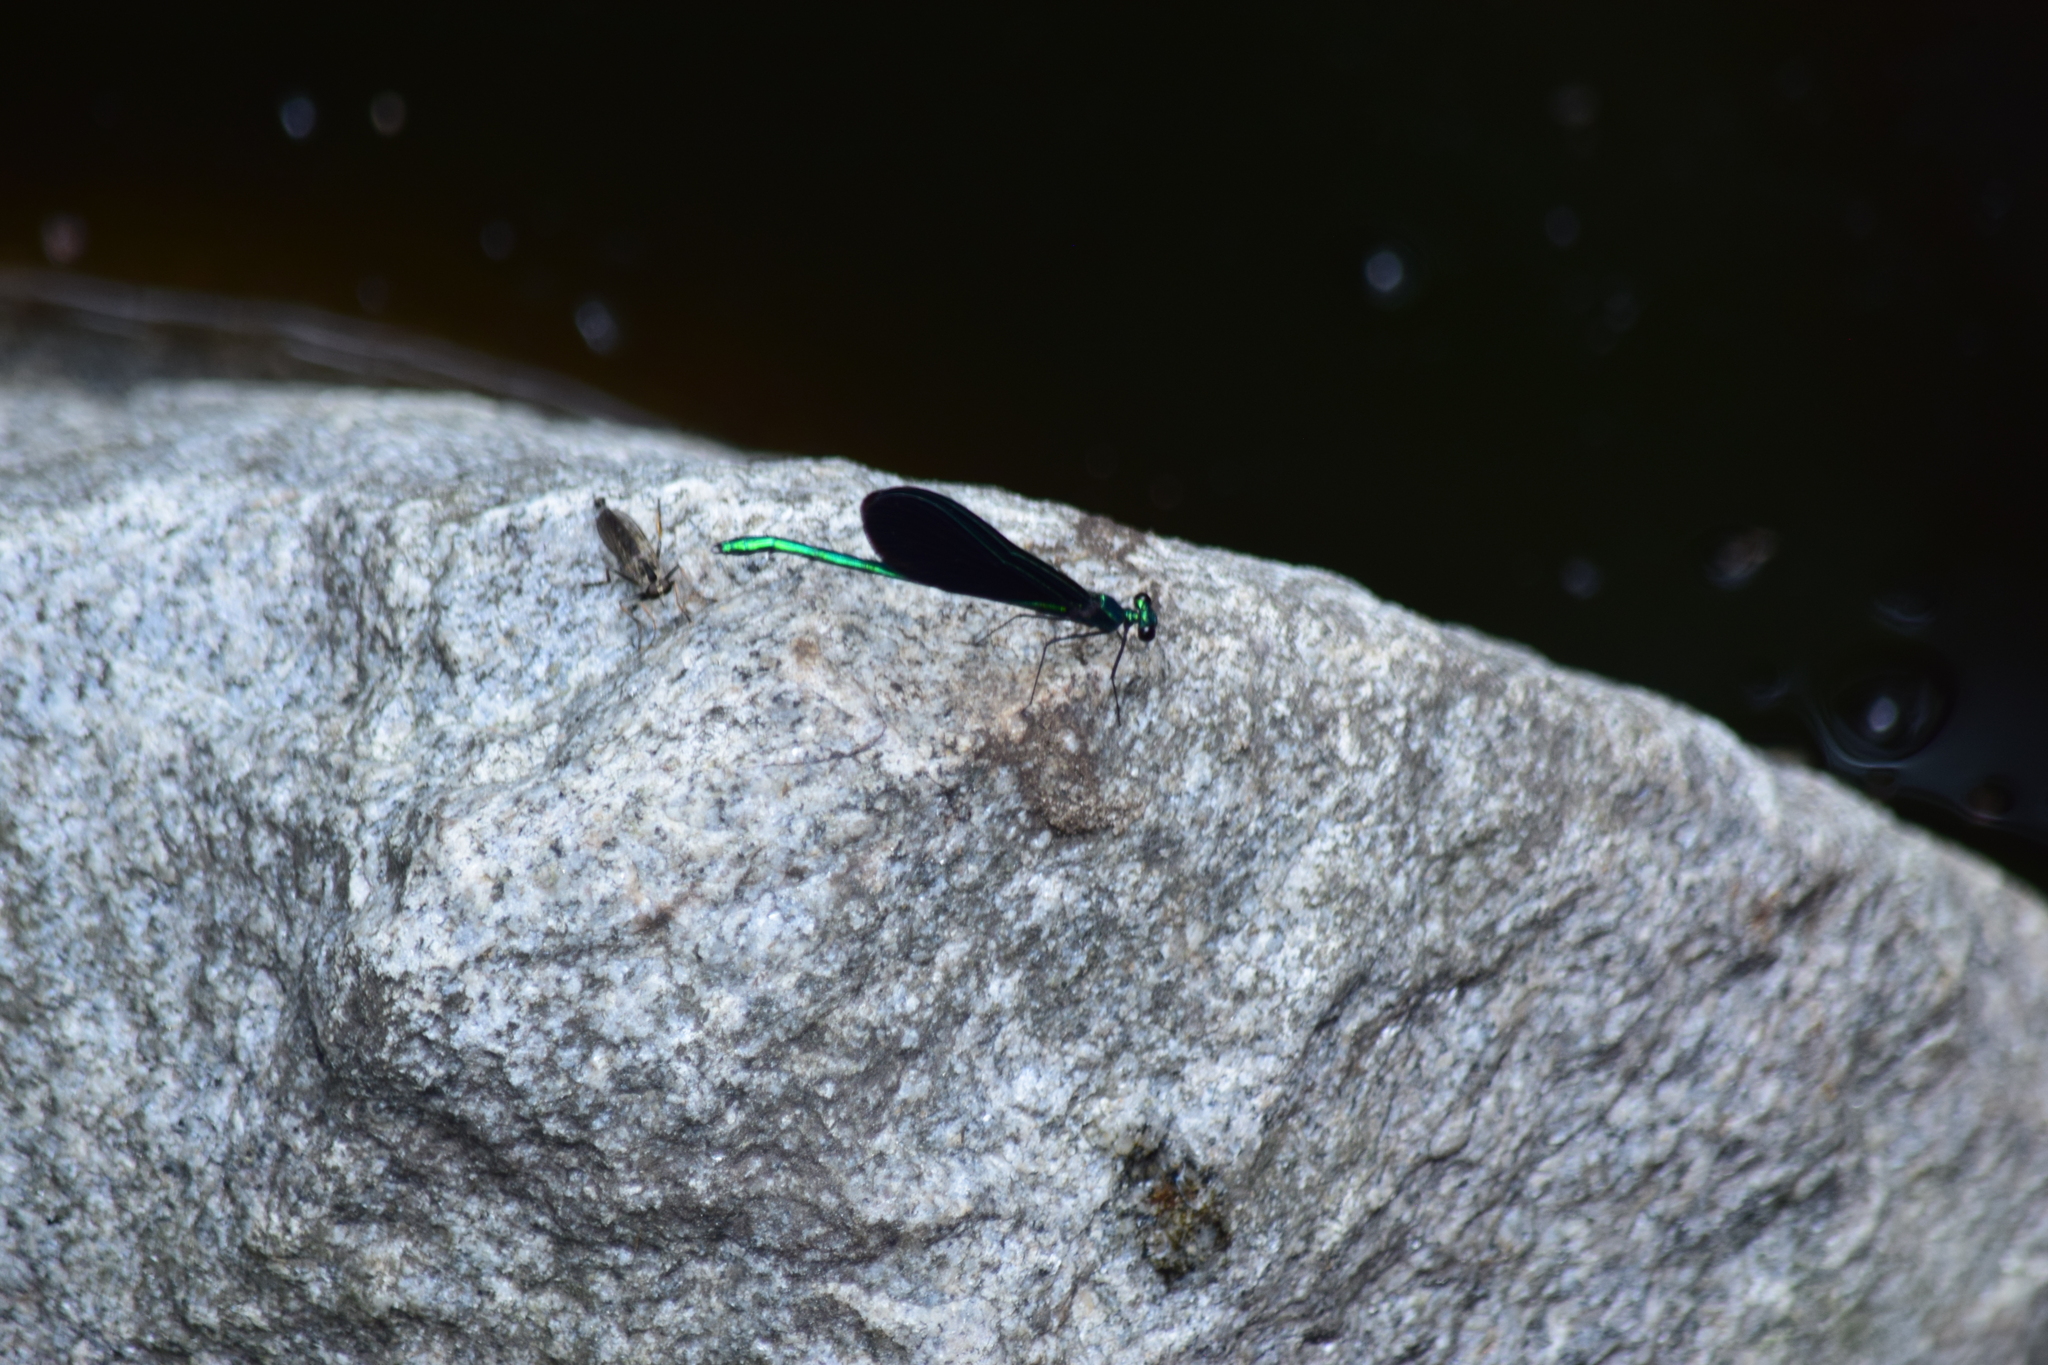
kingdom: Animalia
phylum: Arthropoda
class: Insecta
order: Odonata
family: Calopterygidae
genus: Calopteryx
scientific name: Calopteryx maculata
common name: Ebony jewelwing
